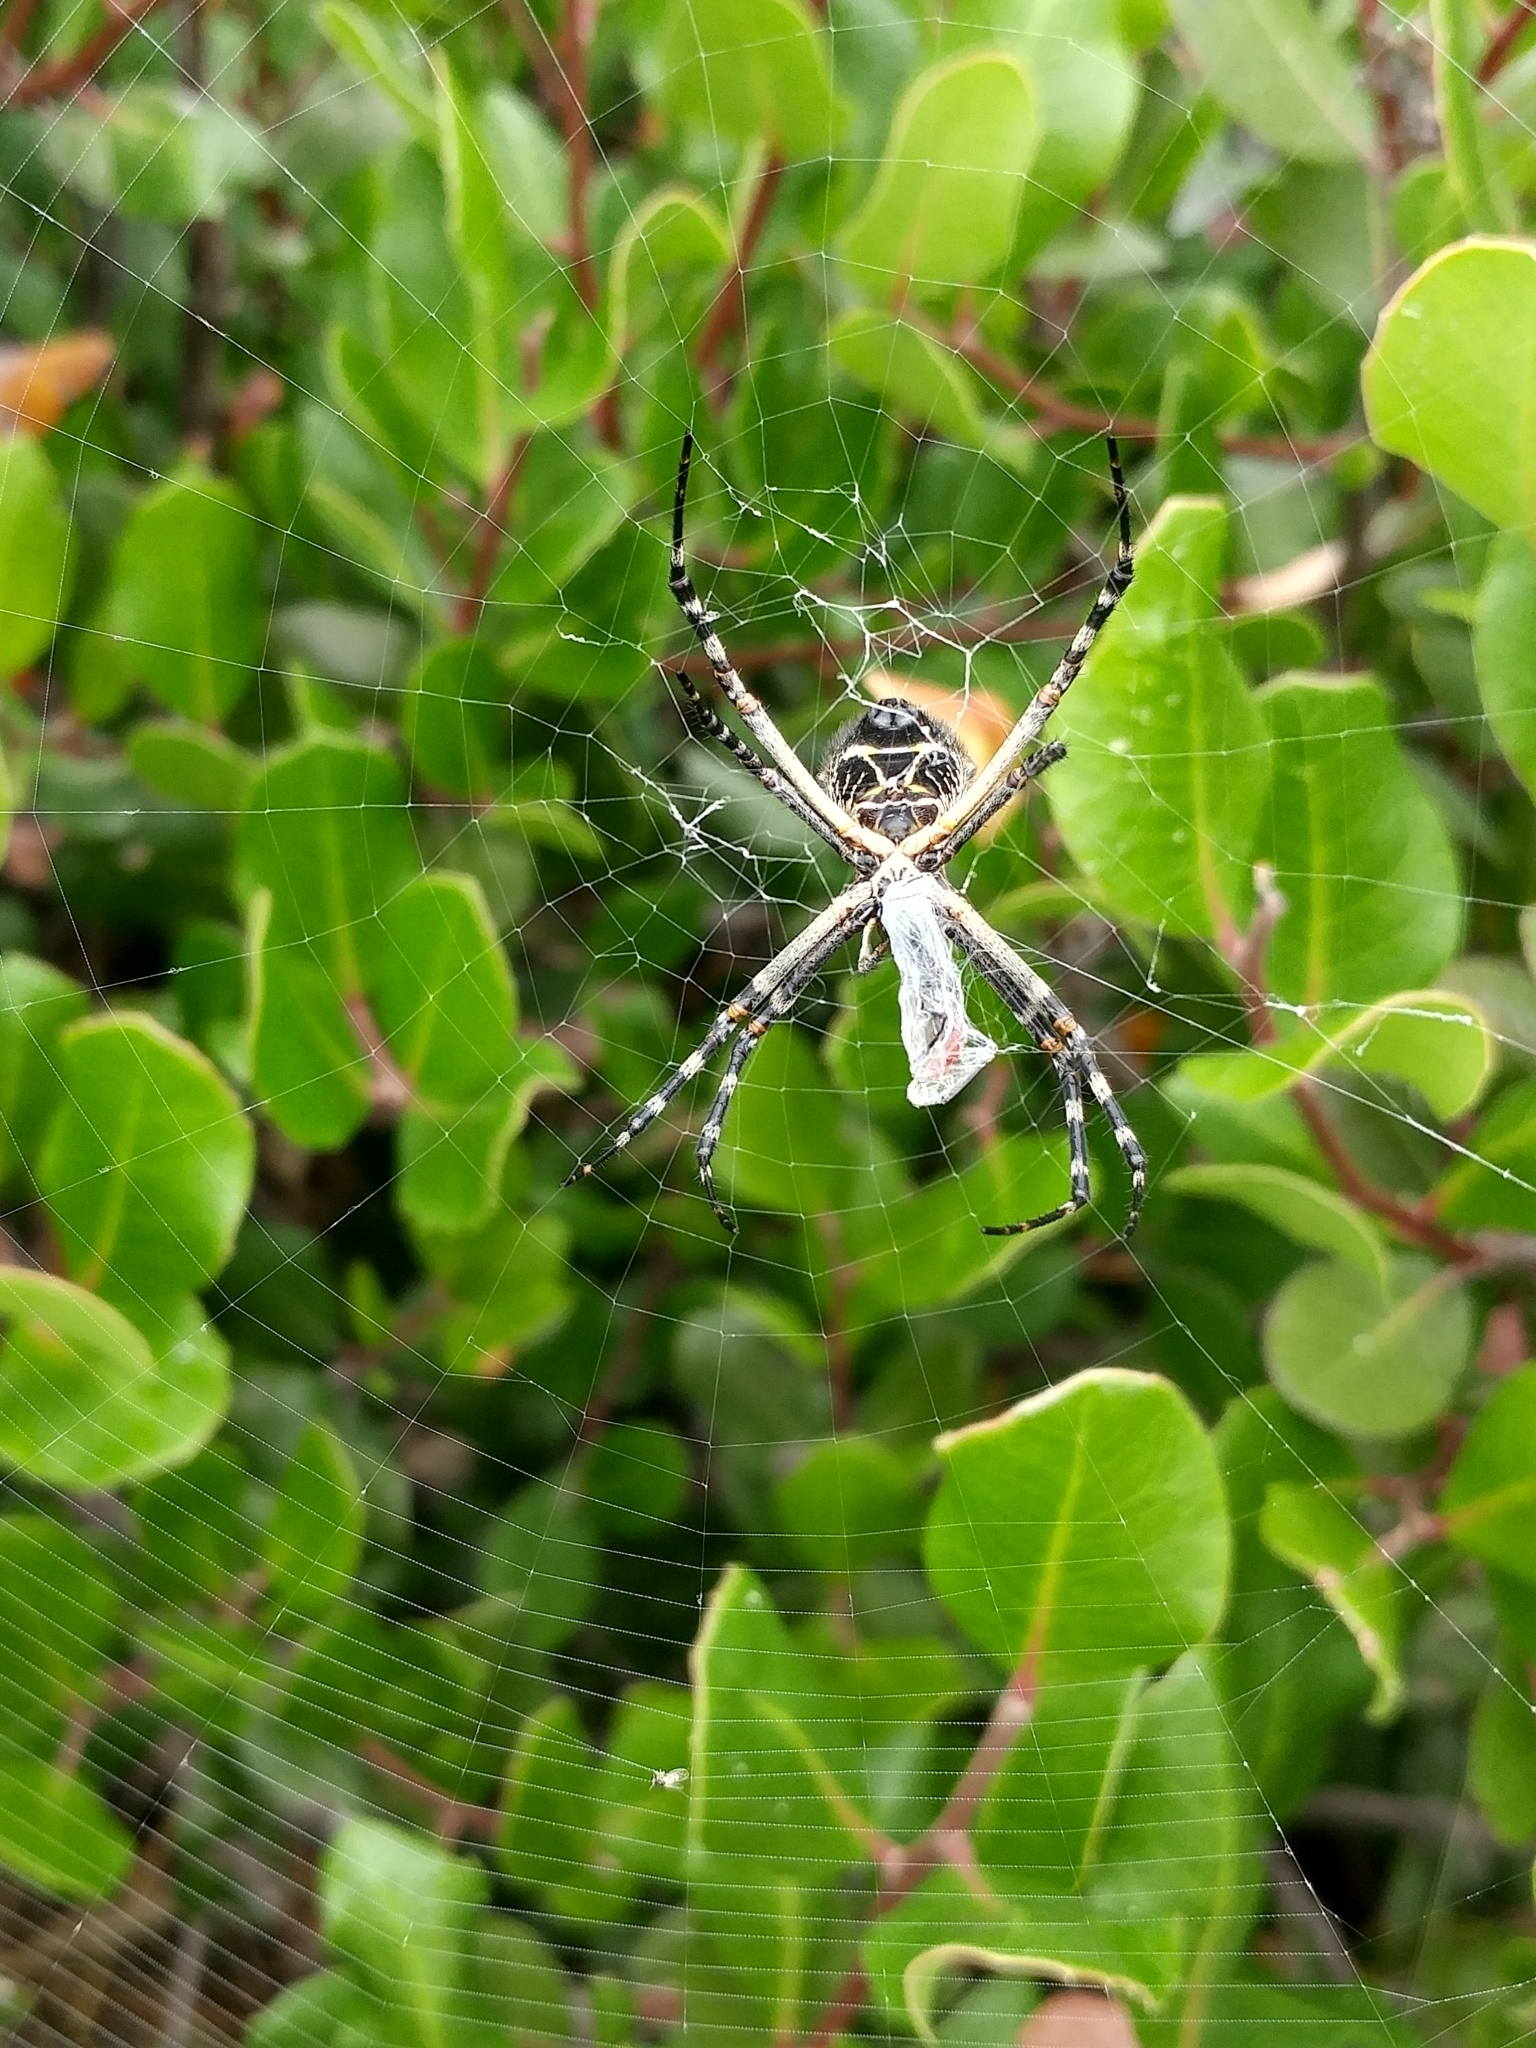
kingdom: Animalia
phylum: Arthropoda
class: Arachnida
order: Araneae
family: Araneidae
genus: Argiope
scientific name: Argiope argentata
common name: Orb weavers
